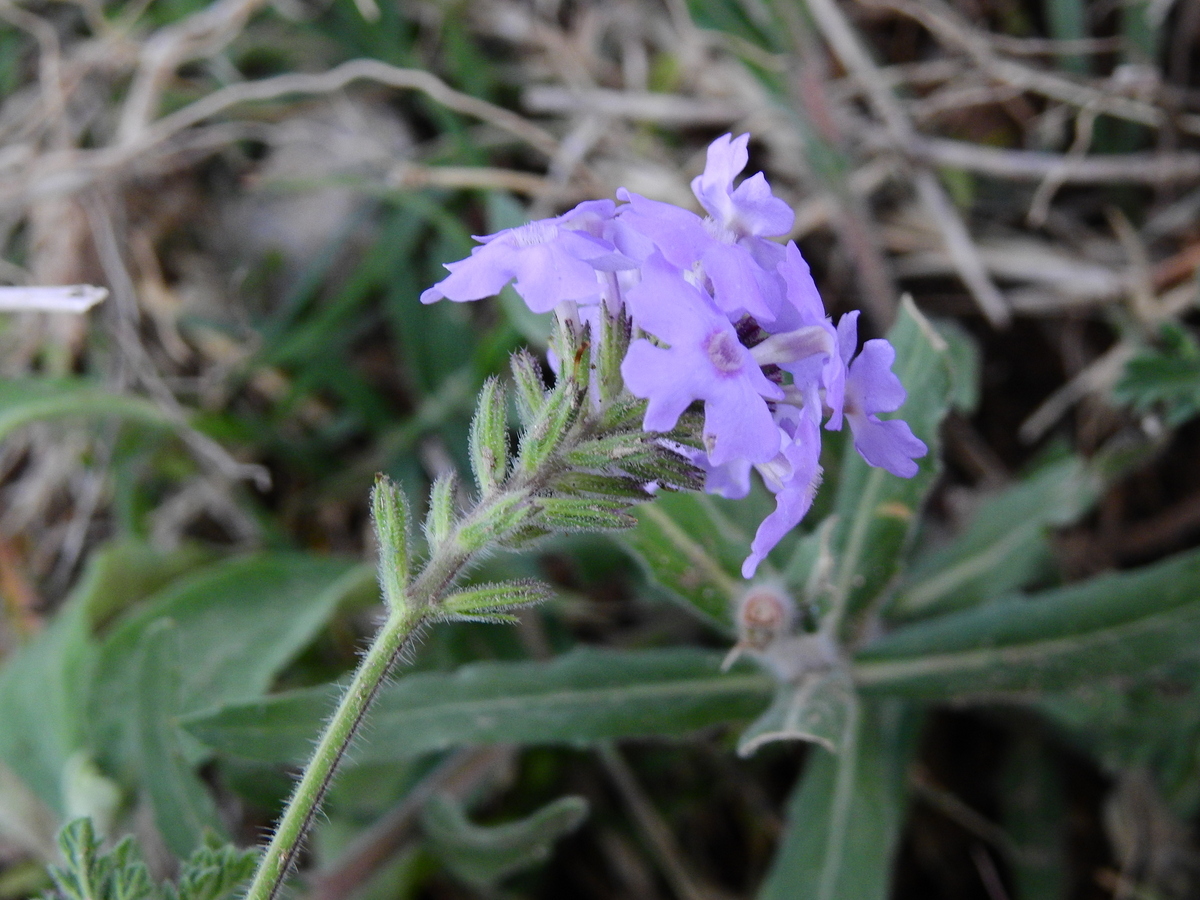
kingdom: Plantae
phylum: Tracheophyta
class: Magnoliopsida
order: Lamiales
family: Verbenaceae
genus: Verbena
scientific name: Verbena venturii
